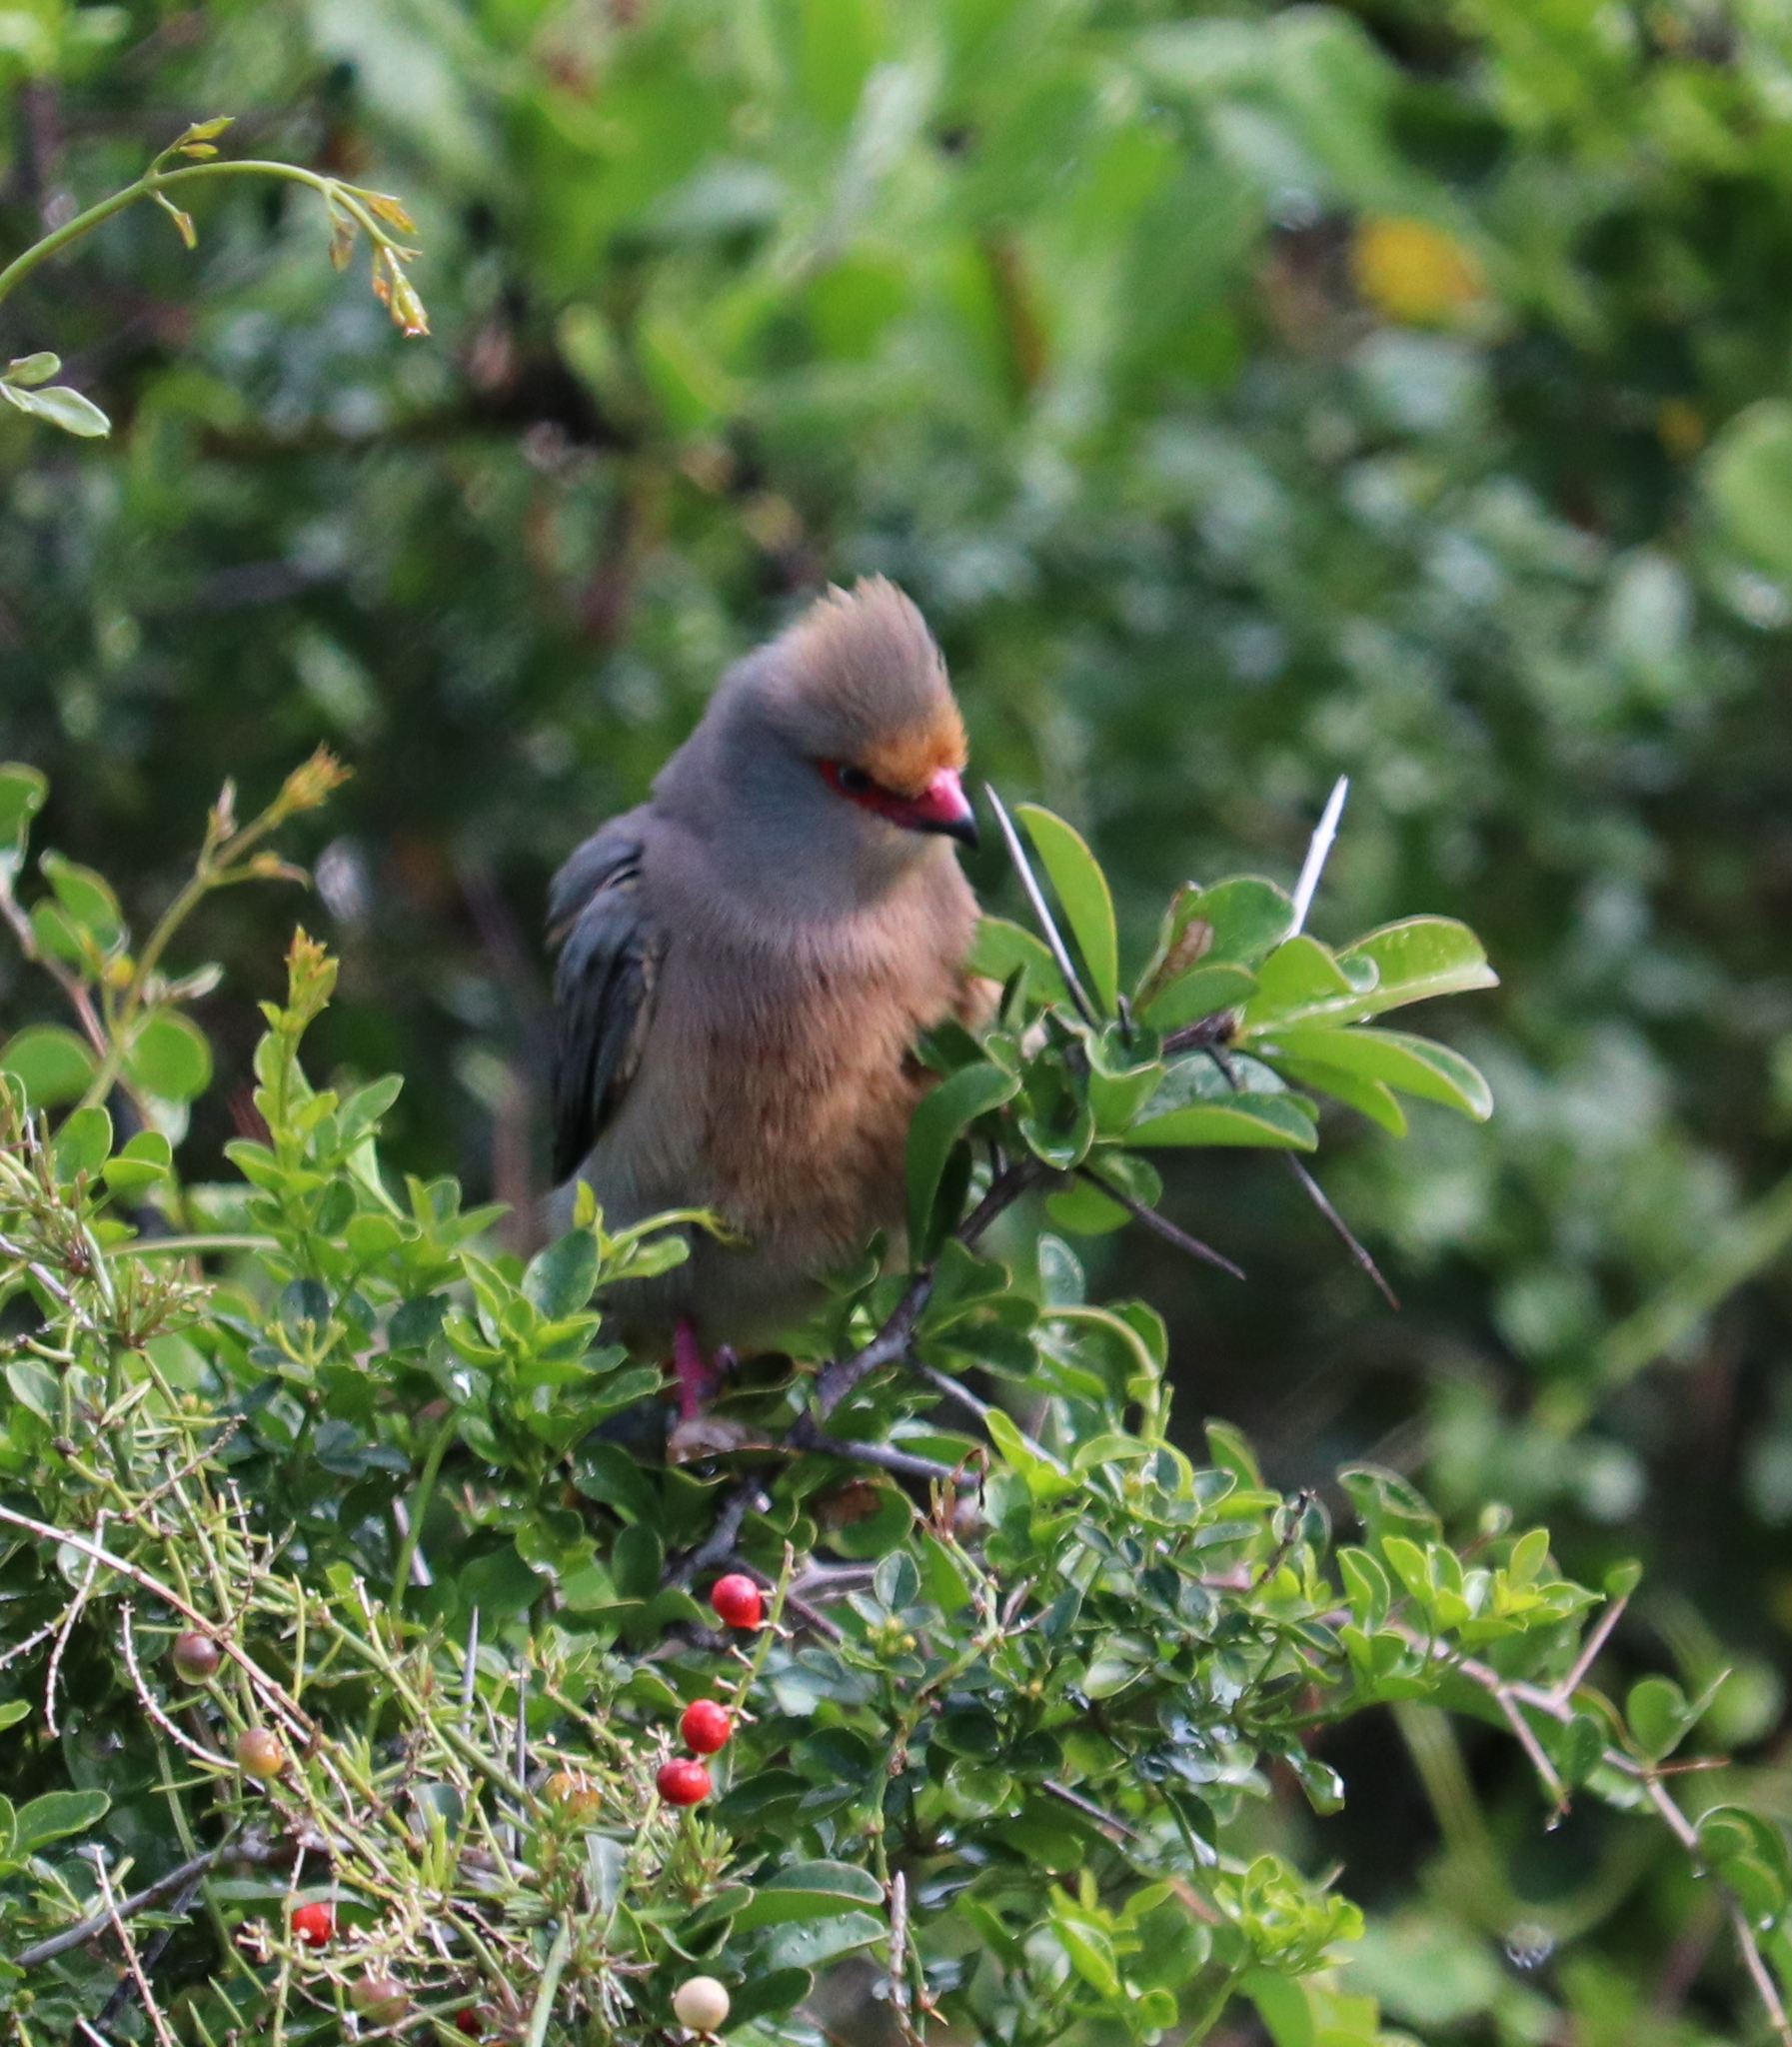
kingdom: Animalia
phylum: Chordata
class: Aves
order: Coliiformes
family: Coliidae
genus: Urocolius
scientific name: Urocolius indicus
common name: Red-faced mousebird
